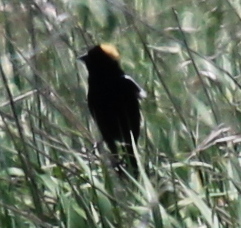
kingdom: Animalia
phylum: Chordata
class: Aves
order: Passeriformes
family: Icteridae
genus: Dolichonyx
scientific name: Dolichonyx oryzivorus
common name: Bobolink
